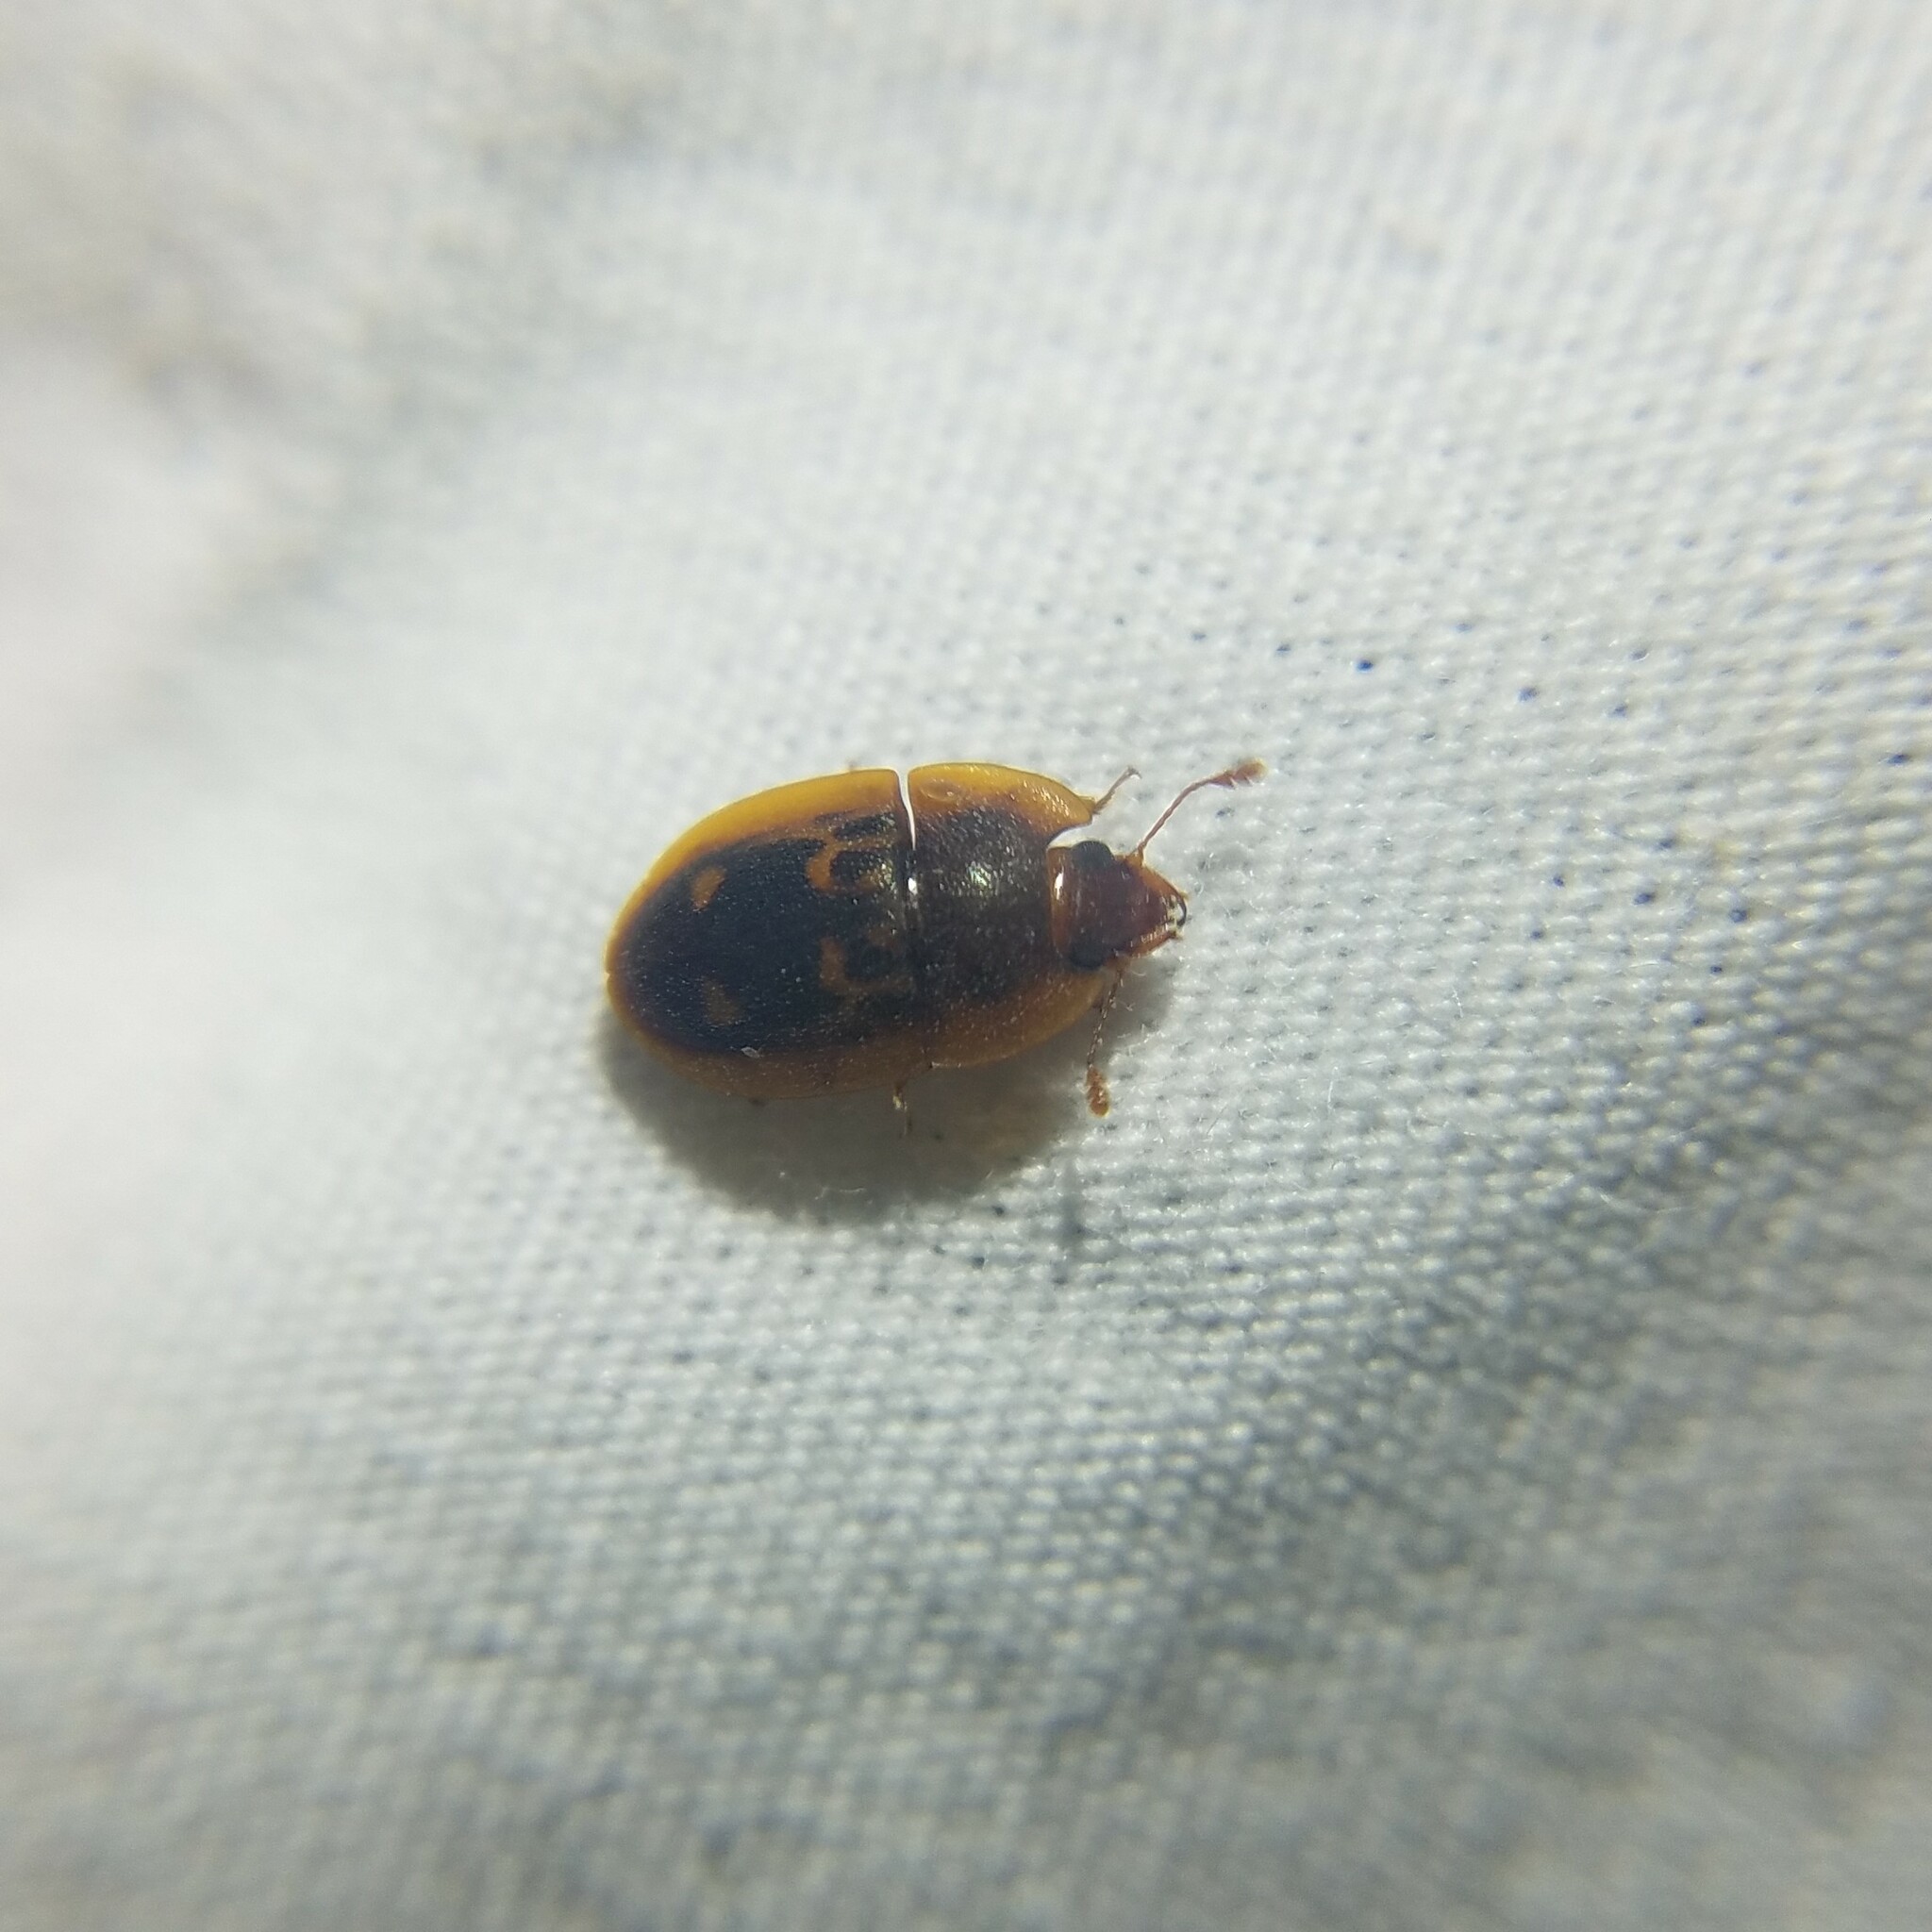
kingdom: Animalia
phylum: Arthropoda
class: Insecta
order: Coleoptera
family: Nitidulidae
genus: Prometopia
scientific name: Prometopia sexmaculata
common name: Six-spotted sap-feeding beetle
